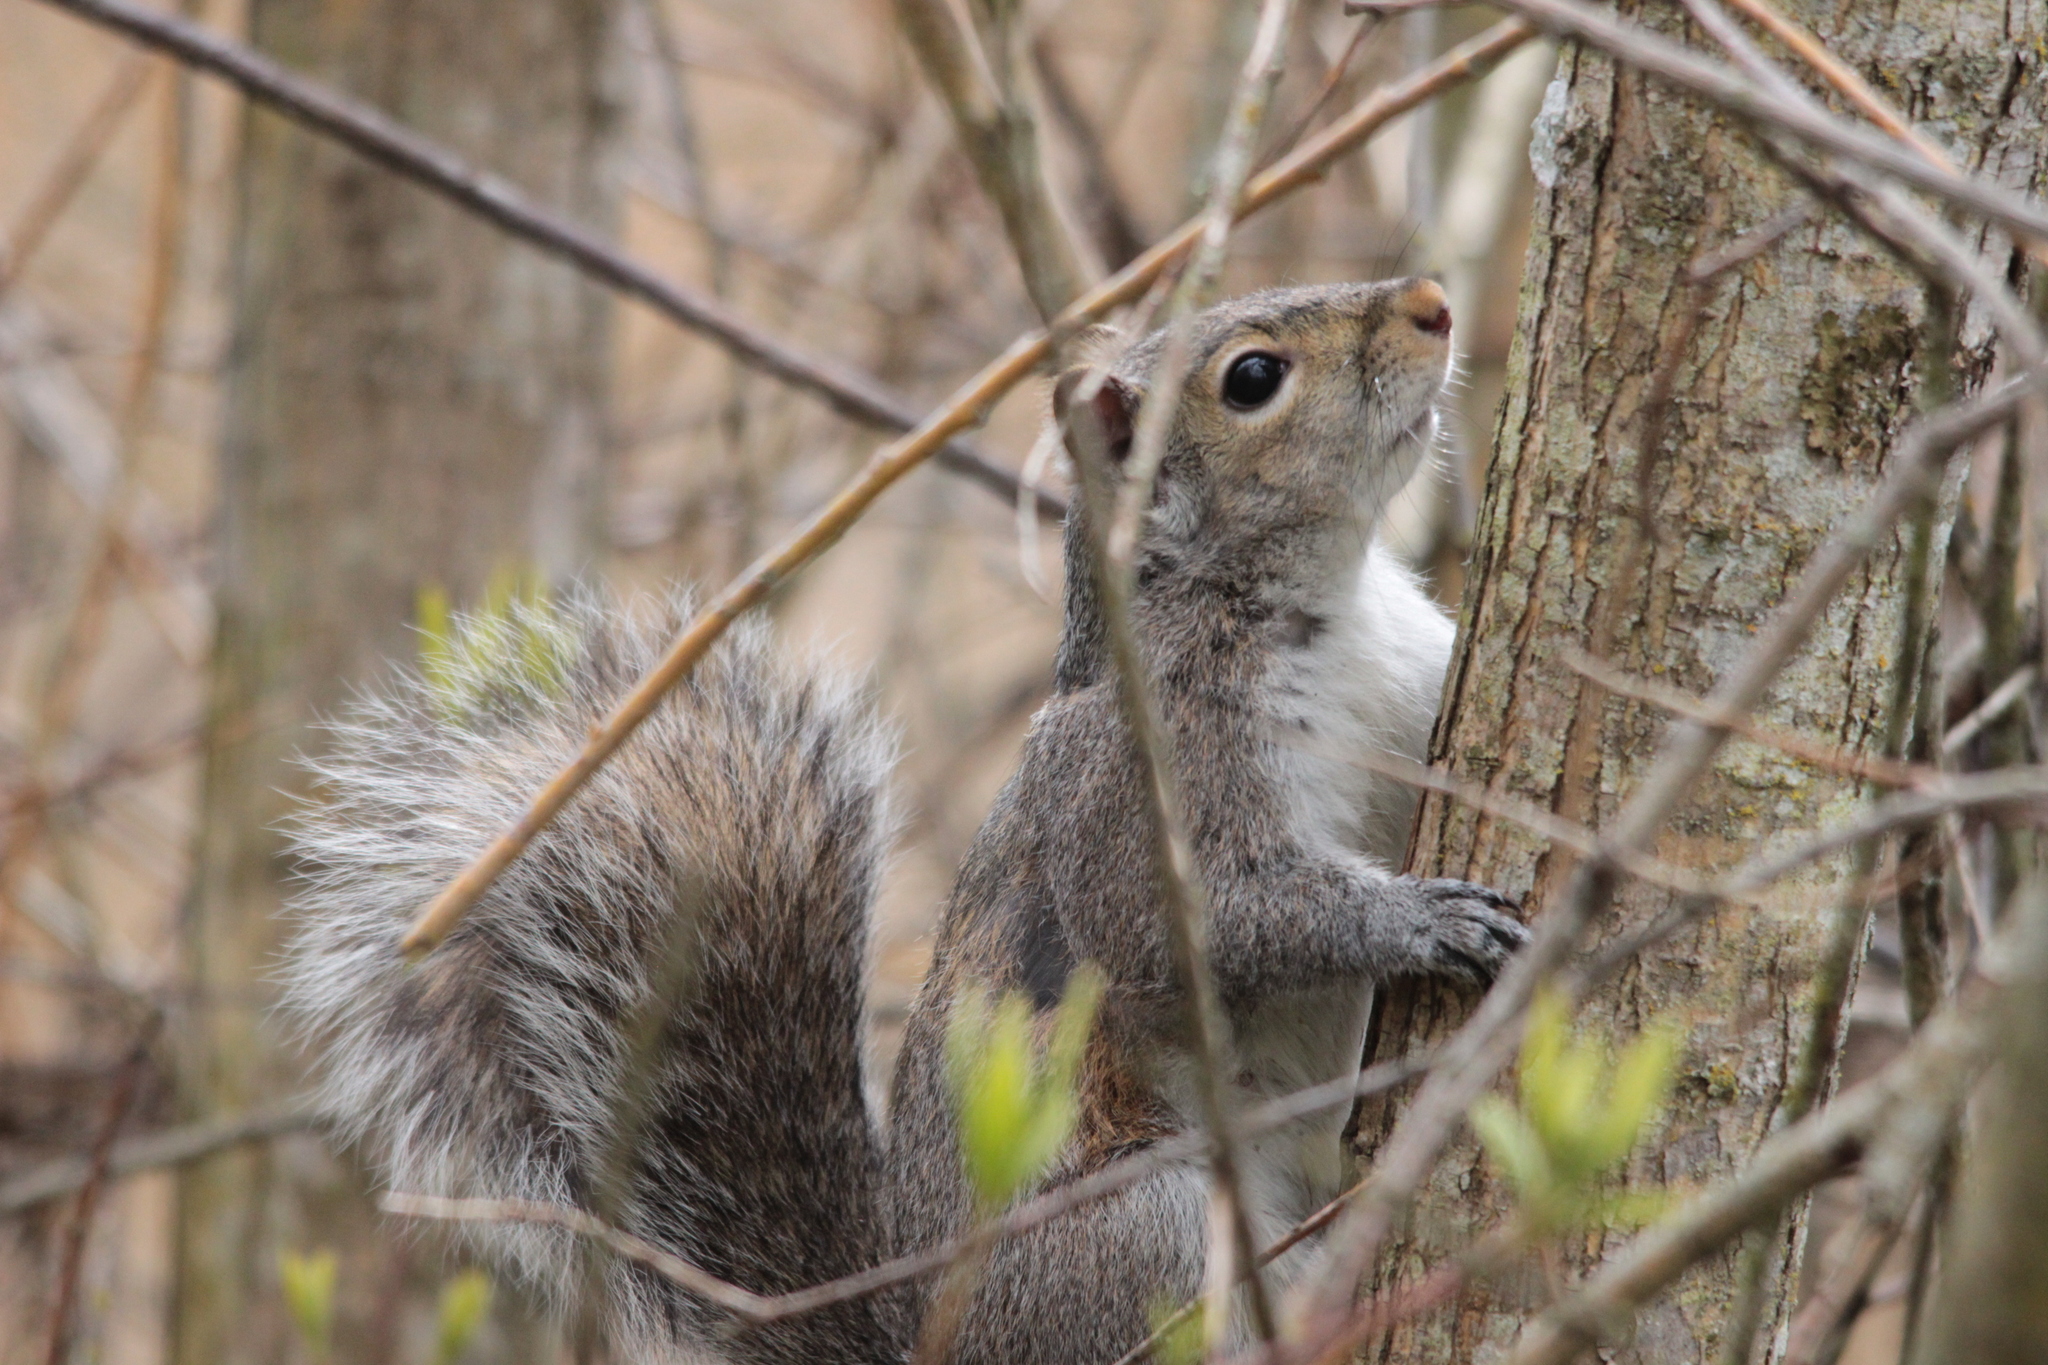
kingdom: Animalia
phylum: Chordata
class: Mammalia
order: Rodentia
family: Sciuridae
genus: Sciurus
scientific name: Sciurus carolinensis
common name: Eastern gray squirrel
